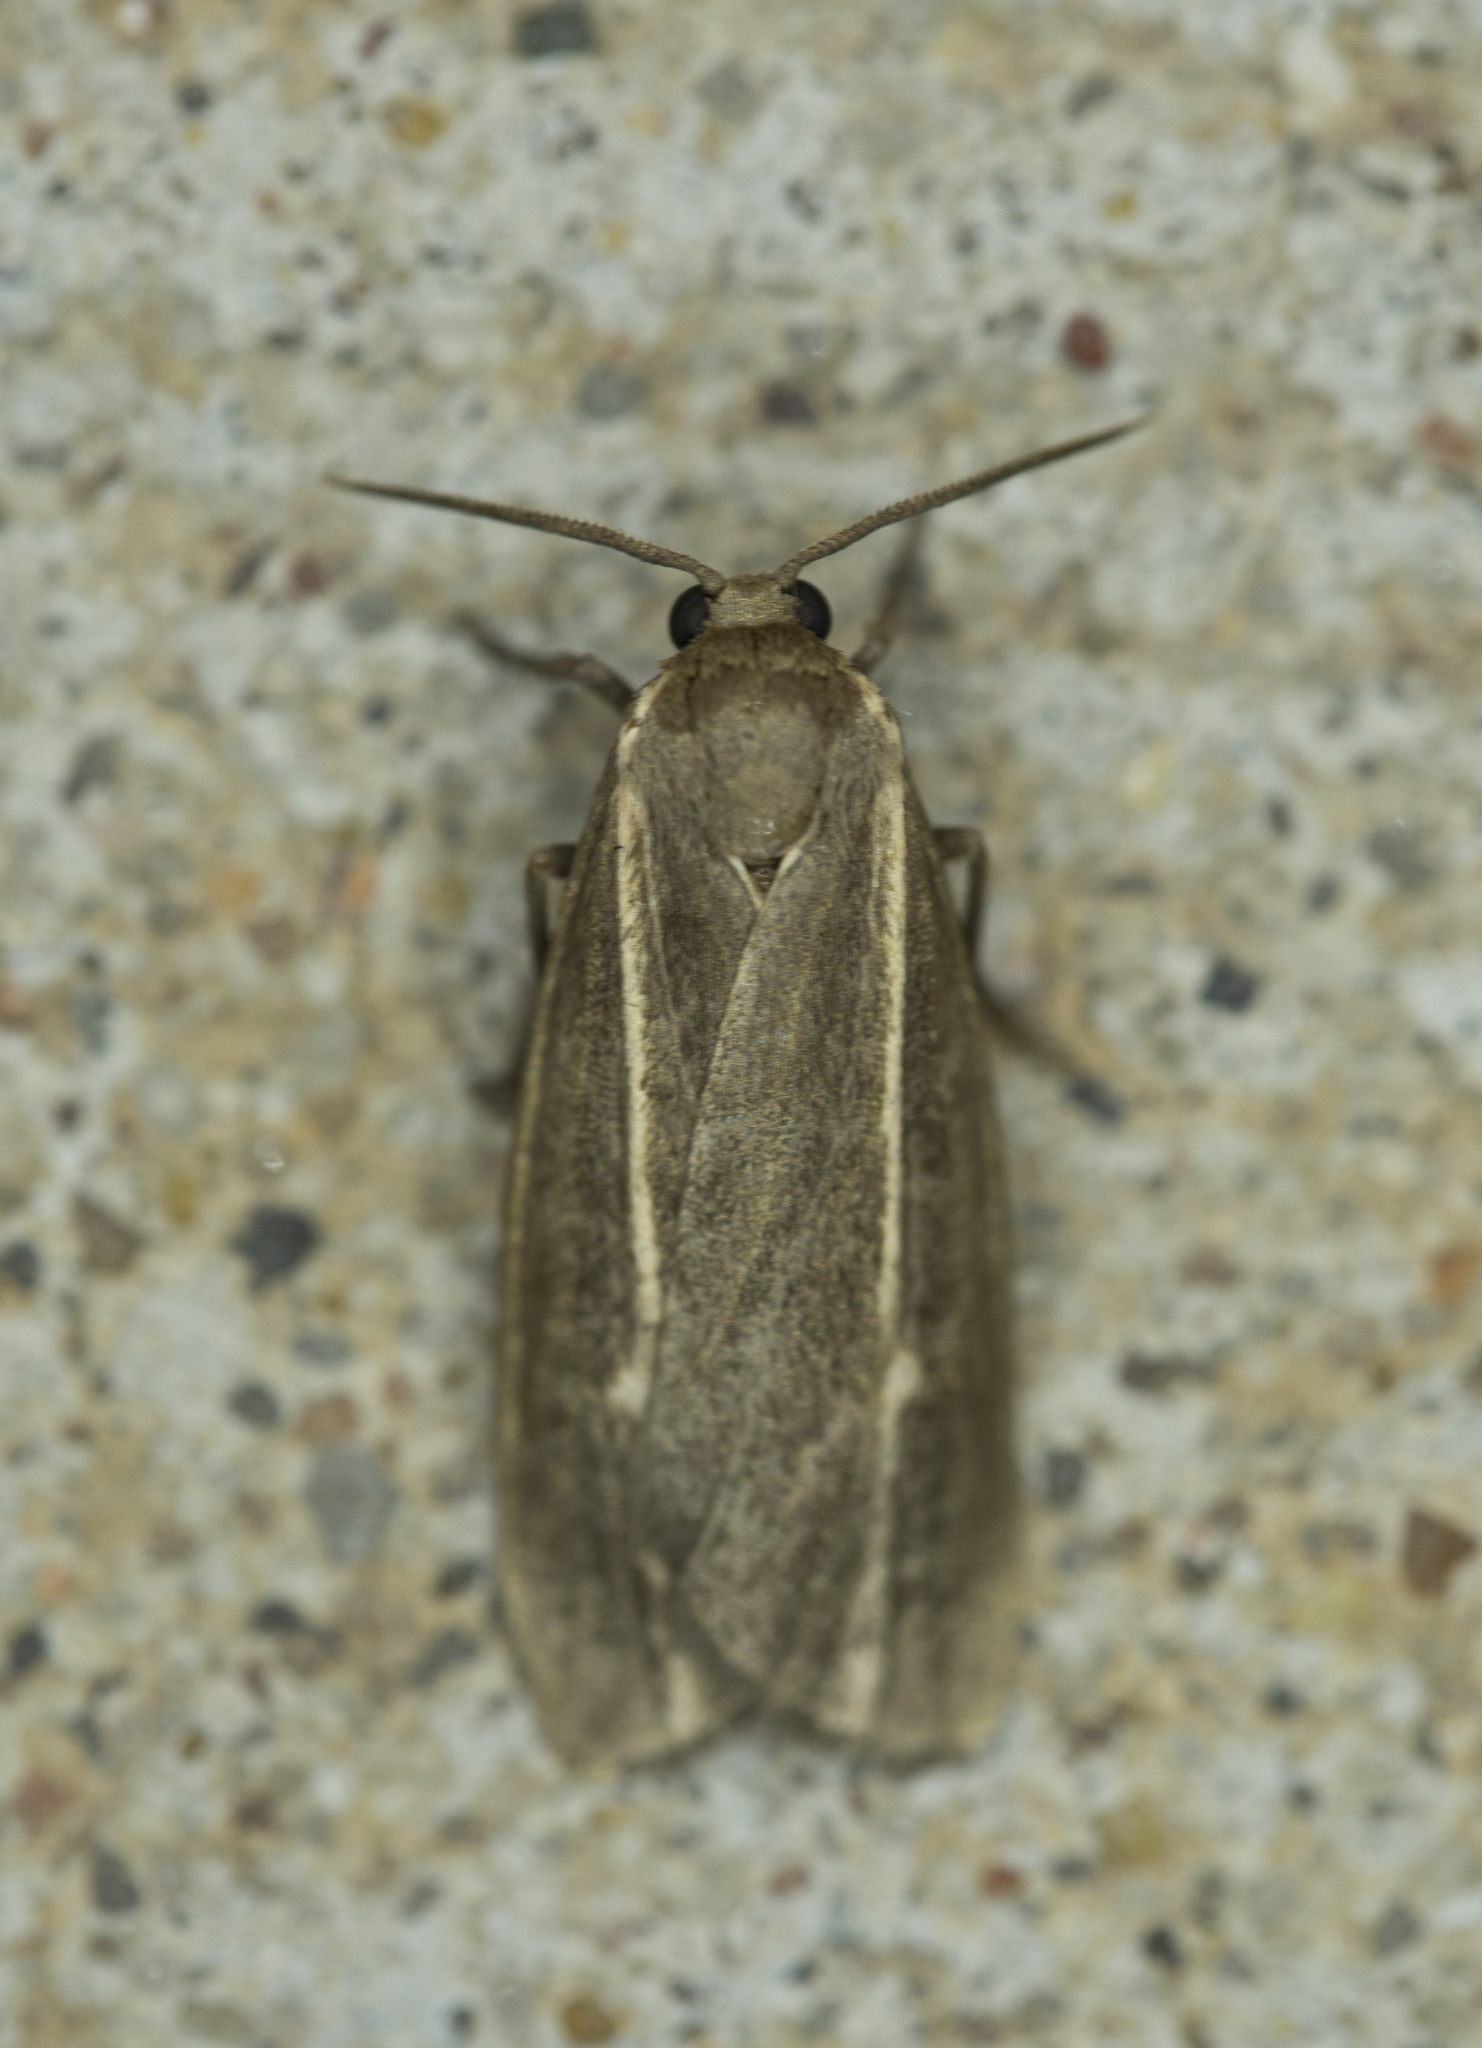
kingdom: Animalia
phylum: Arthropoda
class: Insecta
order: Lepidoptera
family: Erebidae
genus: Hypoprepia
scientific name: Hypoprepia inculta
